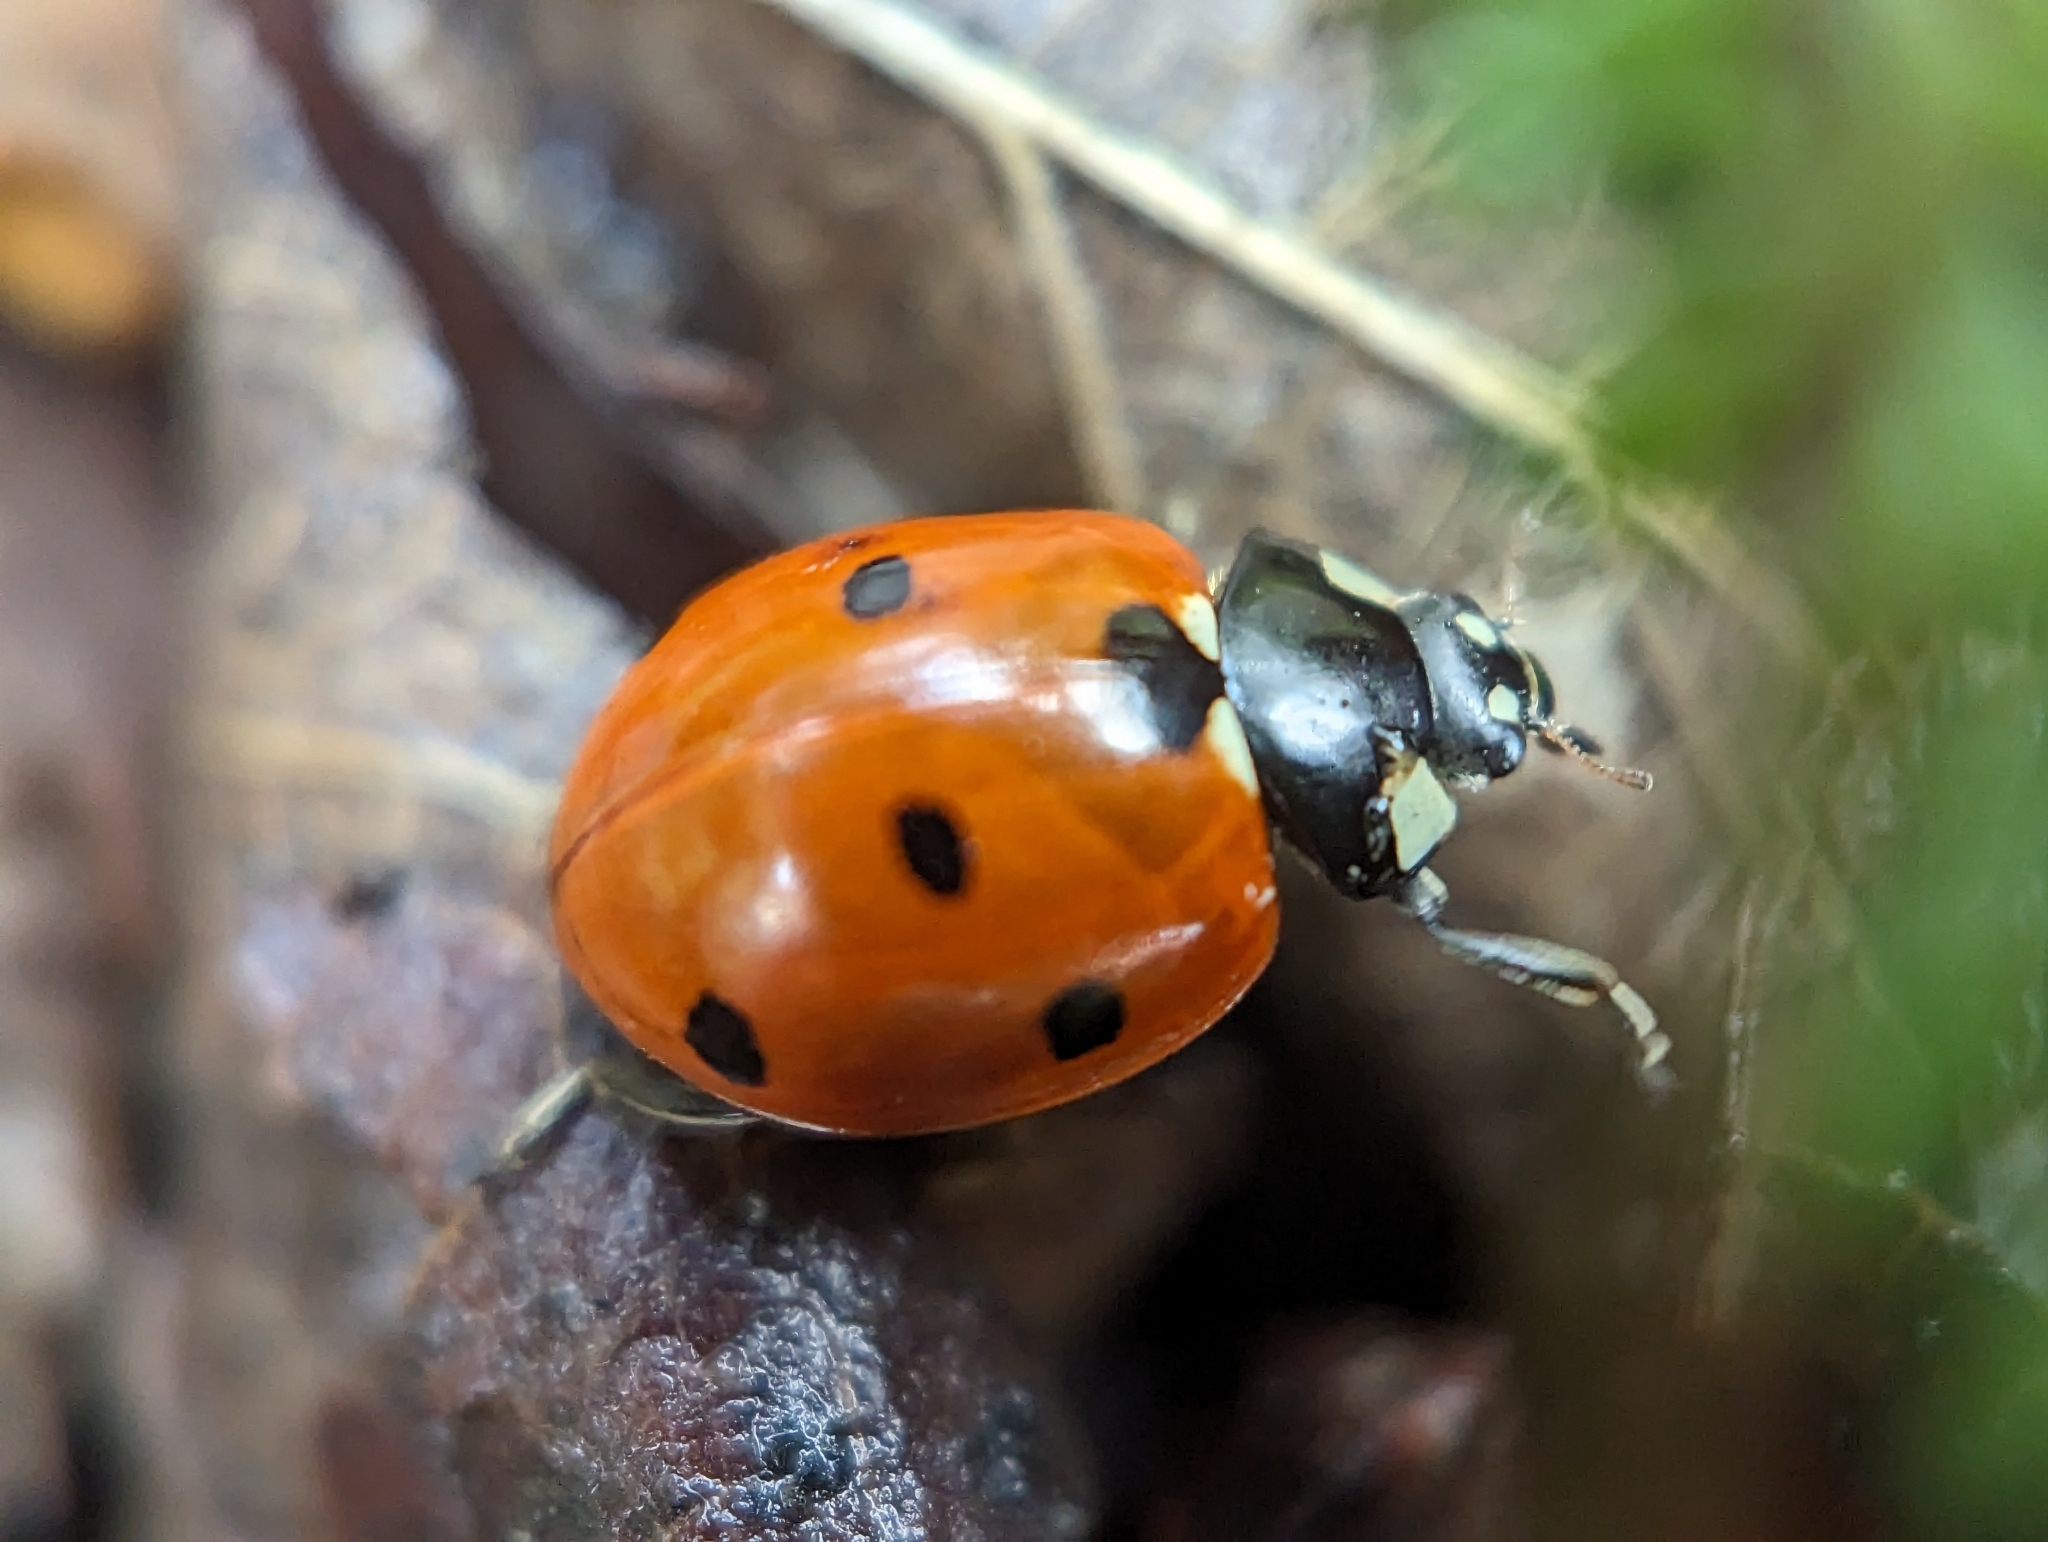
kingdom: Animalia
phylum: Arthropoda
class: Insecta
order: Coleoptera
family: Coccinellidae
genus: Coccinella
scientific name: Coccinella septempunctata
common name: Sevenspotted lady beetle
